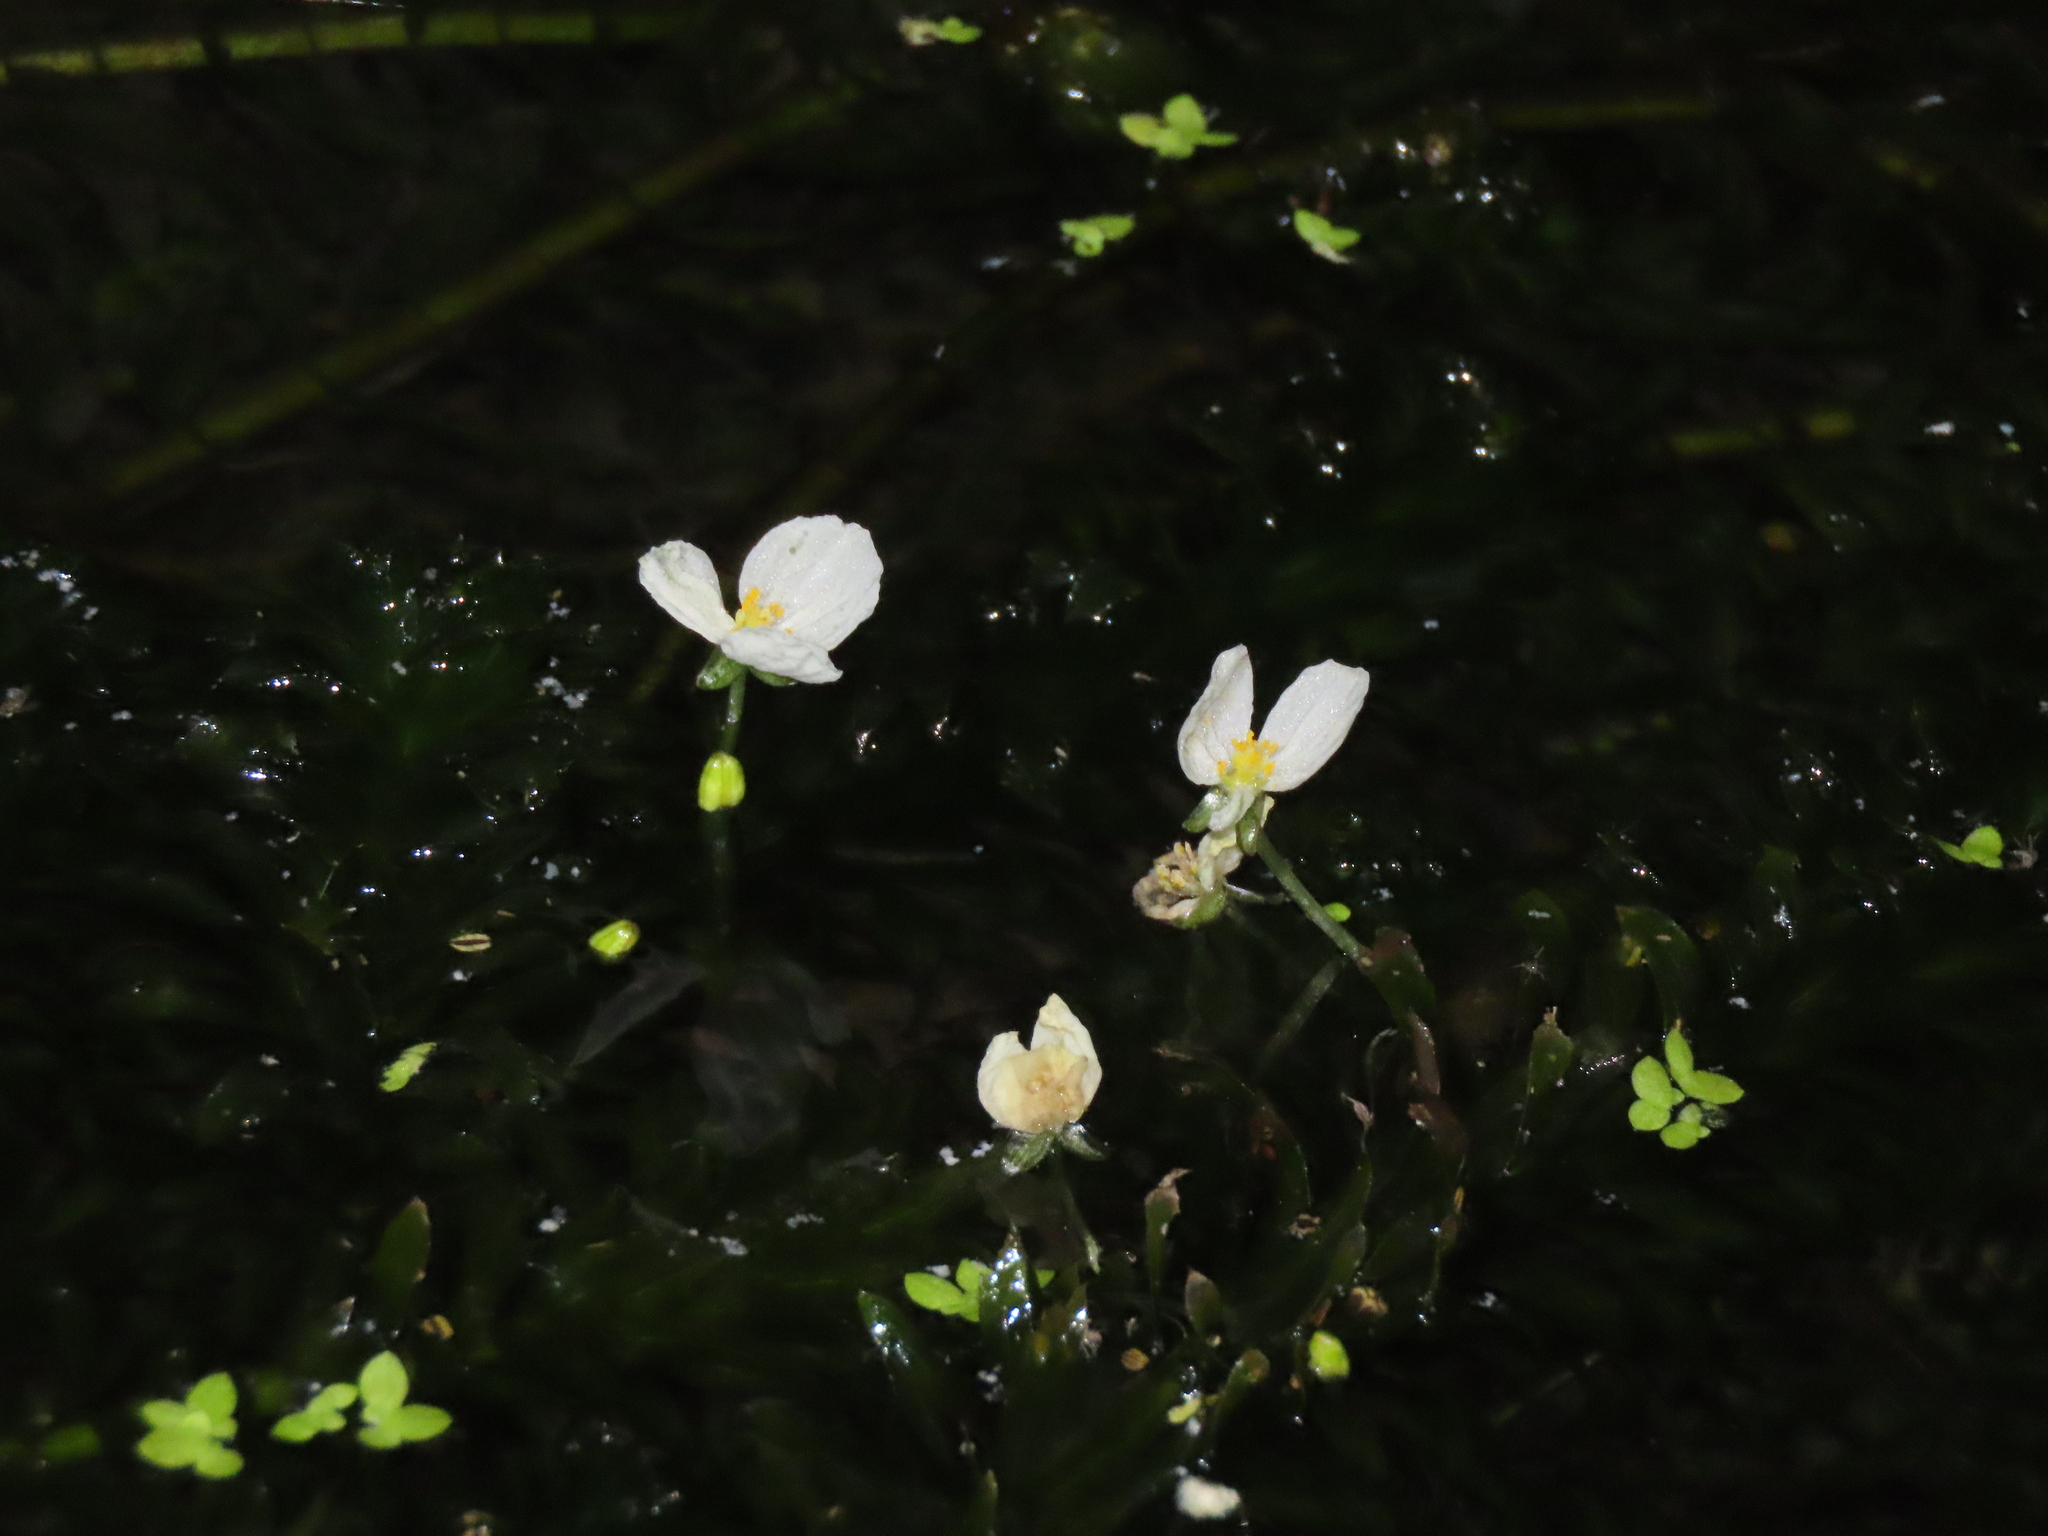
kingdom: Plantae
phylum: Tracheophyta
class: Liliopsida
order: Alismatales
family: Hydrocharitaceae
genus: Elodea
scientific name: Elodea densa
